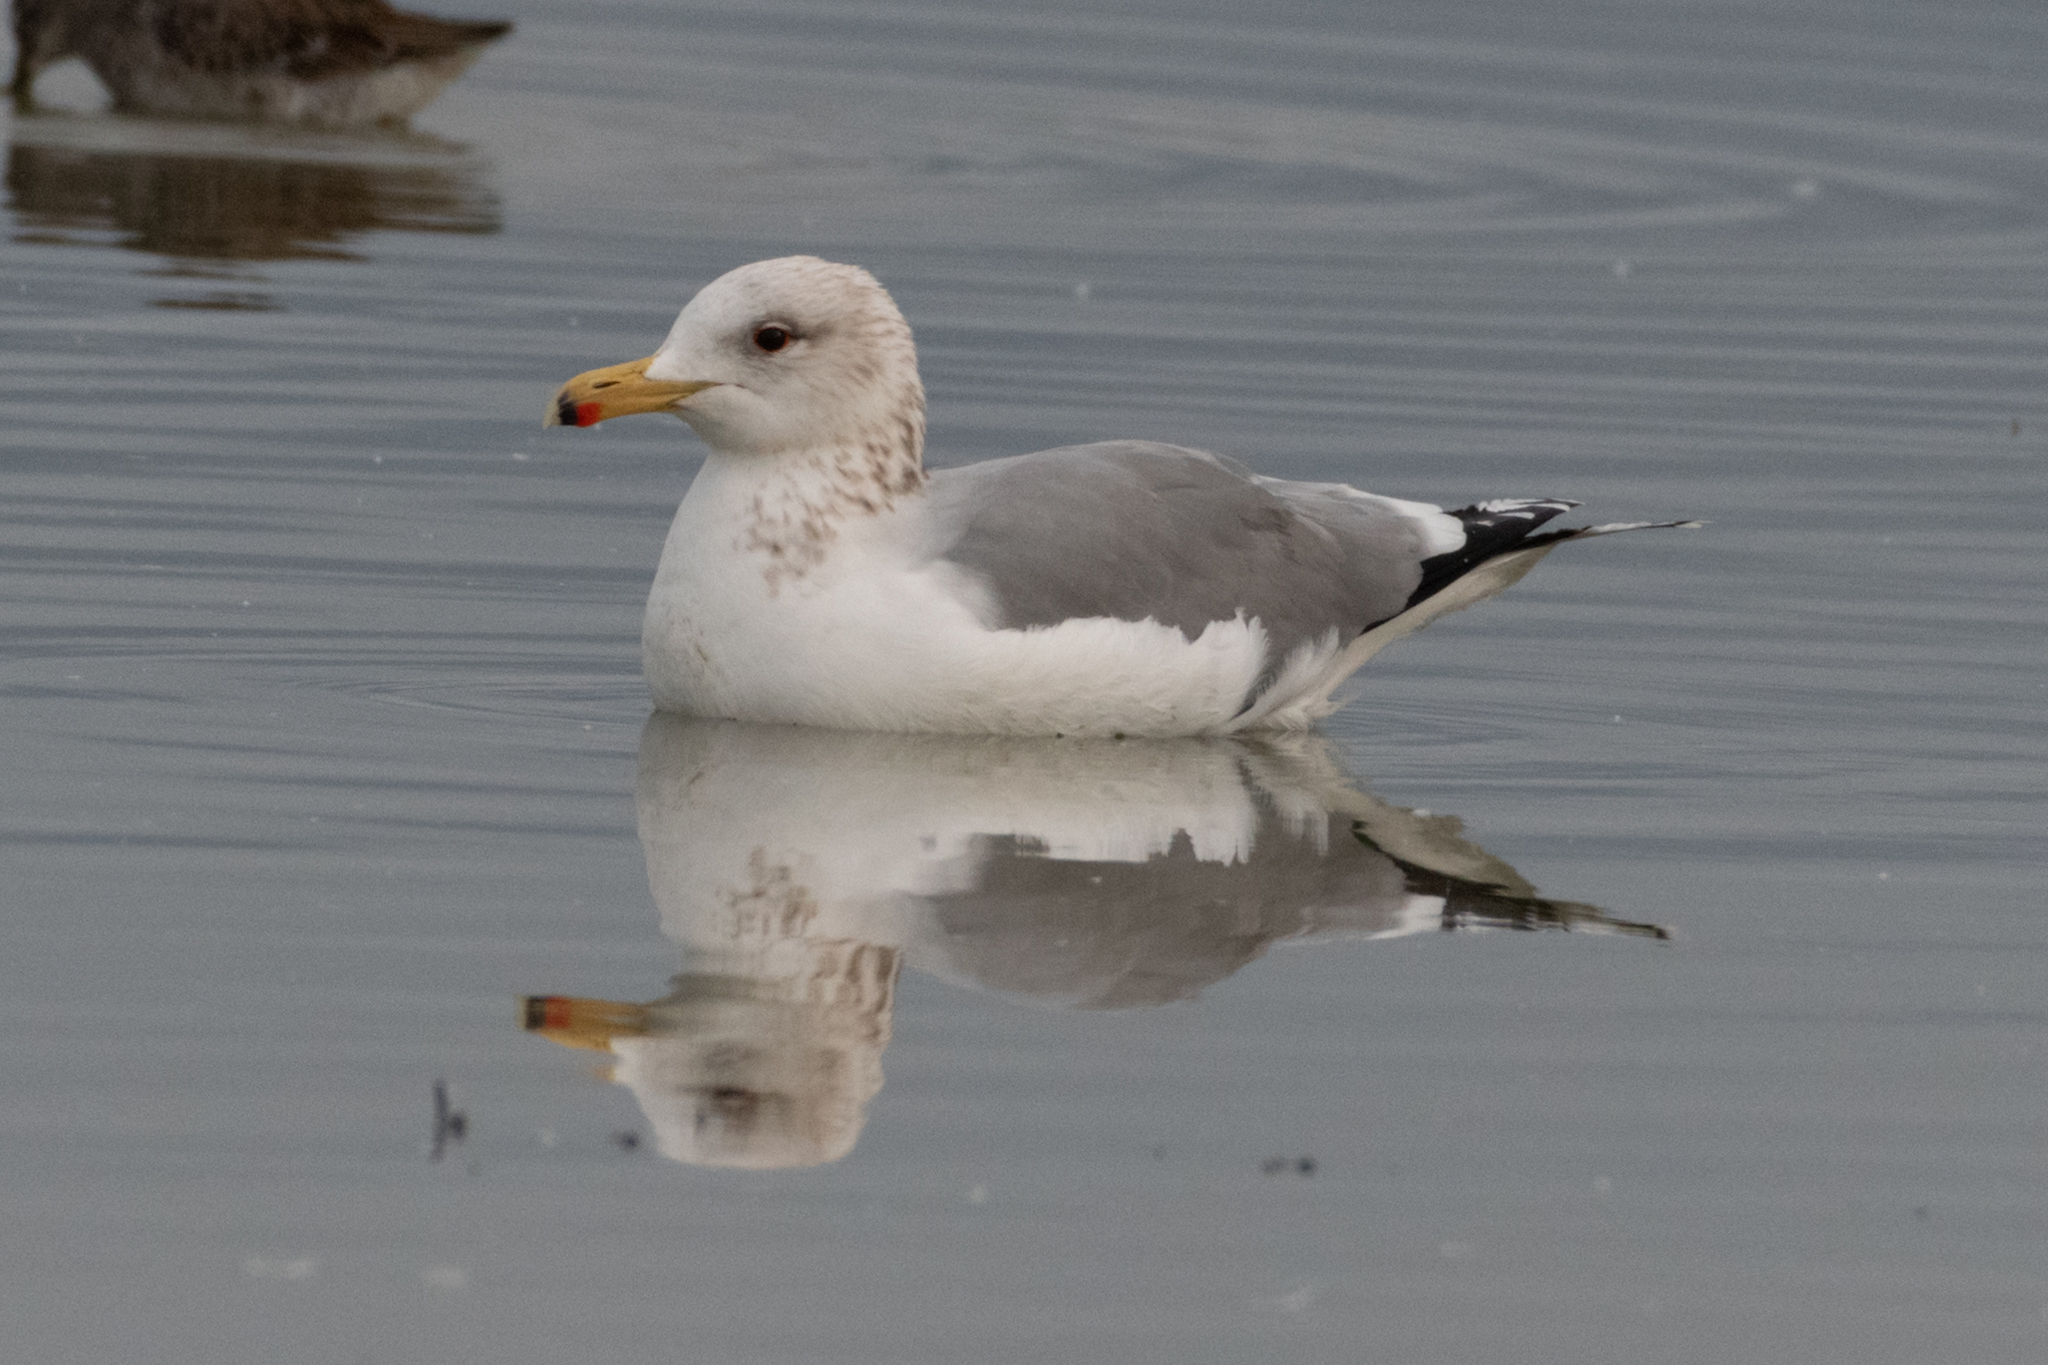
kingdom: Animalia
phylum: Chordata
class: Aves
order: Charadriiformes
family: Laridae
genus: Larus
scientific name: Larus californicus
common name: California gull
